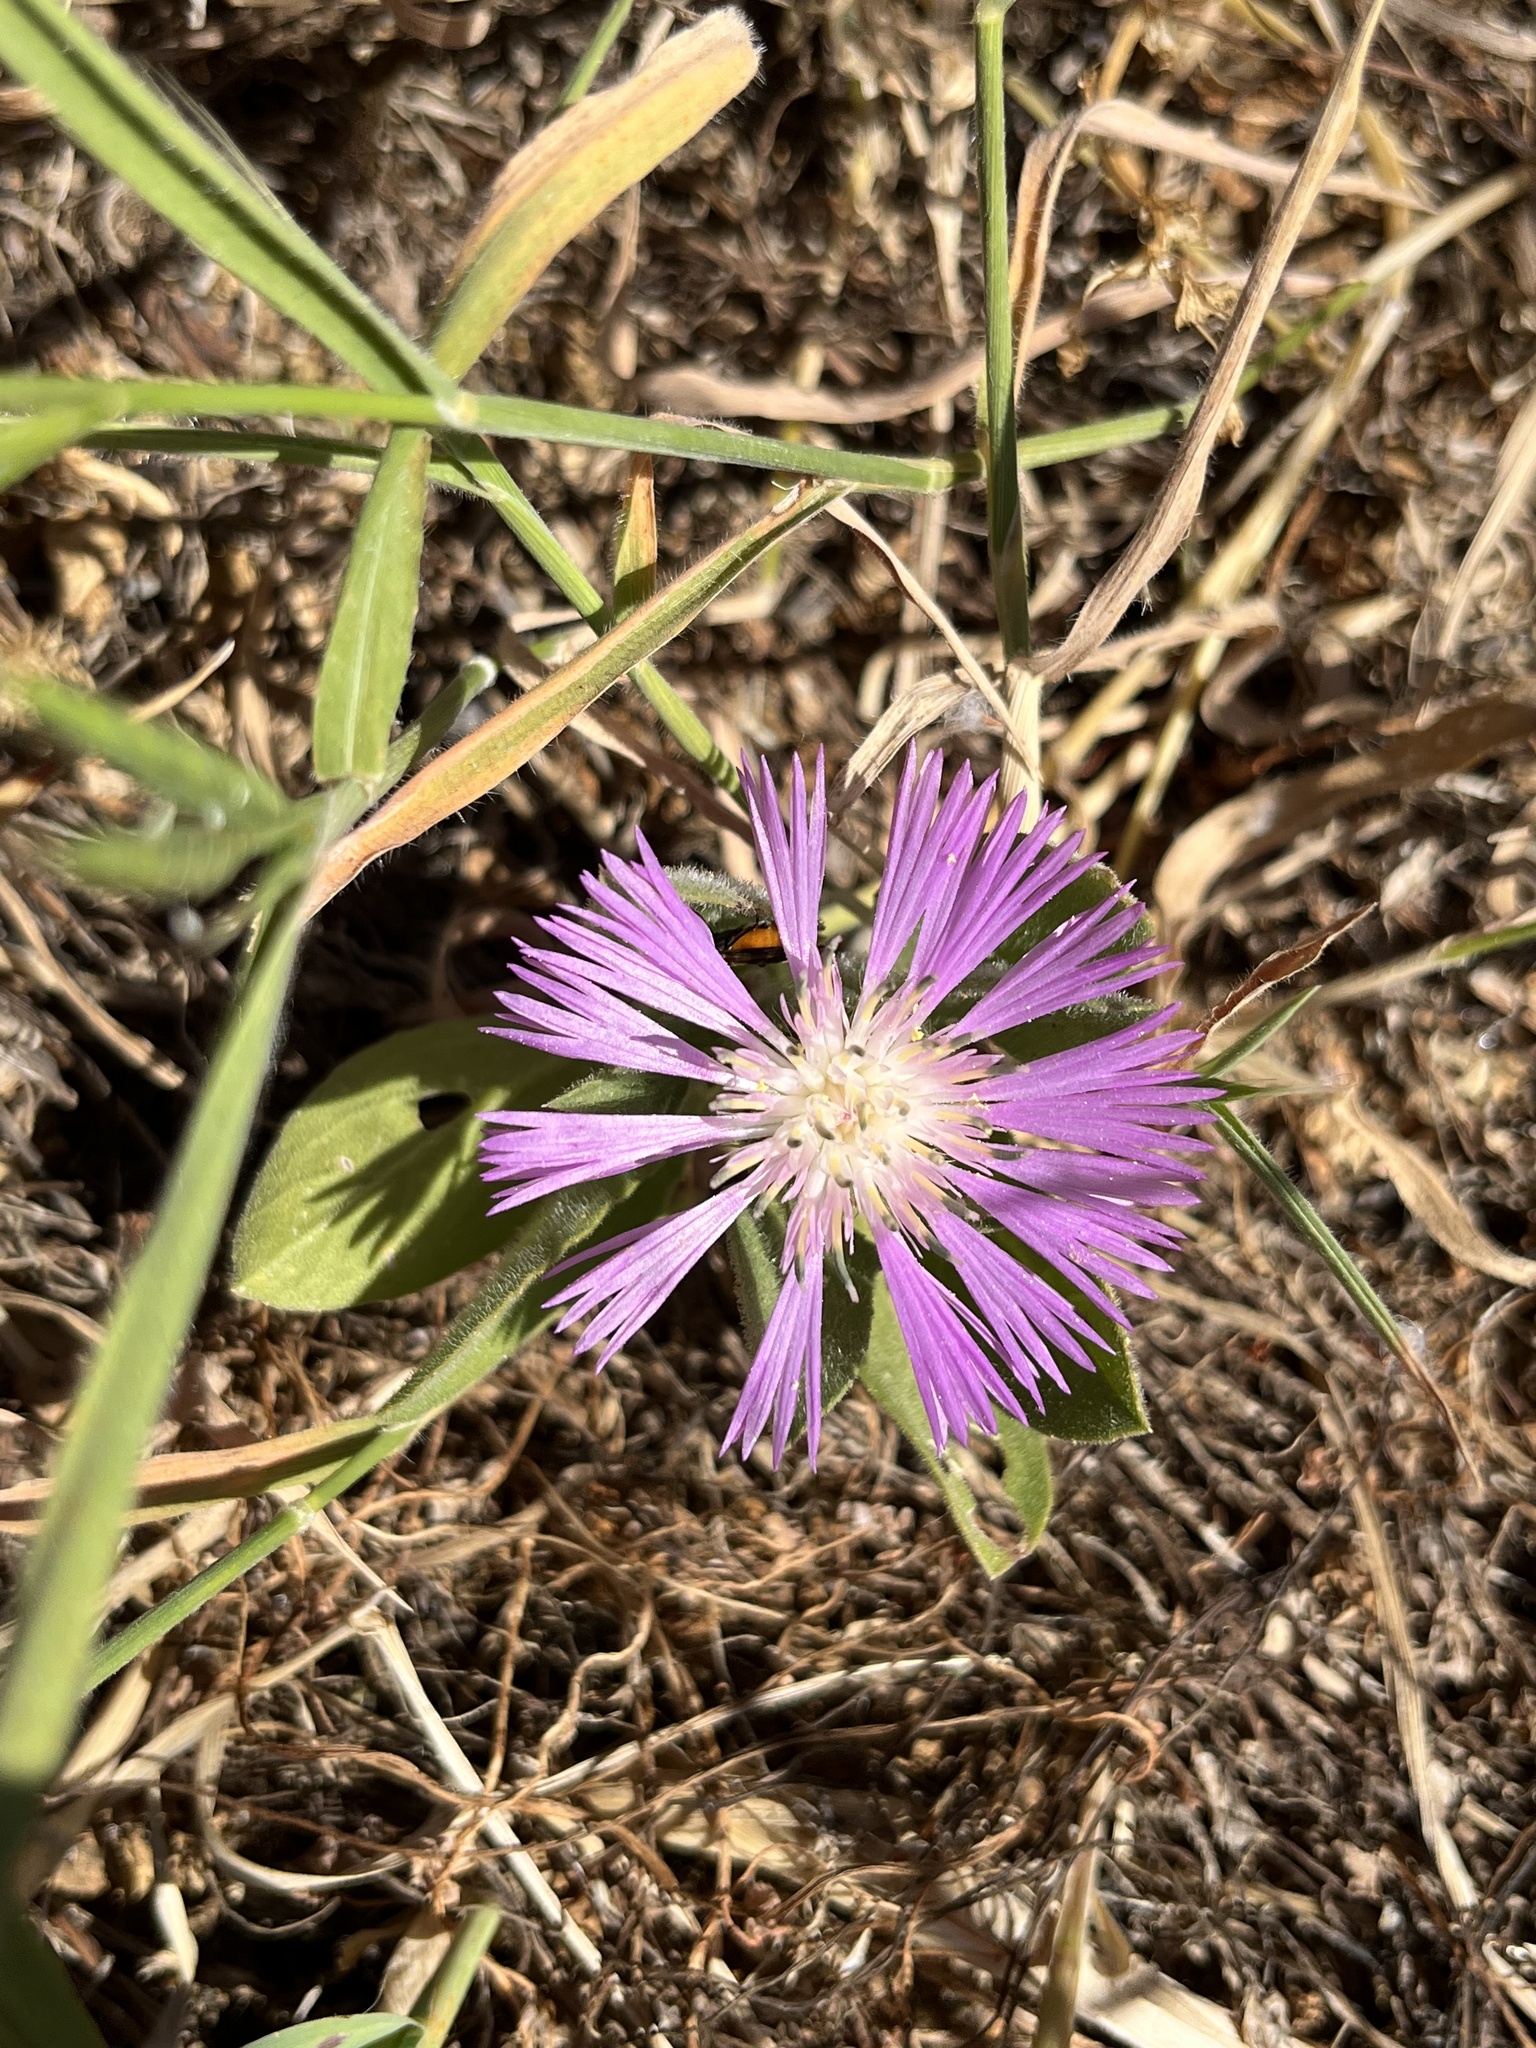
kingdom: Plantae
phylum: Tracheophyta
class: Magnoliopsida
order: Asterales
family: Asteraceae
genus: Centaurea
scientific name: Centaurea pullata
